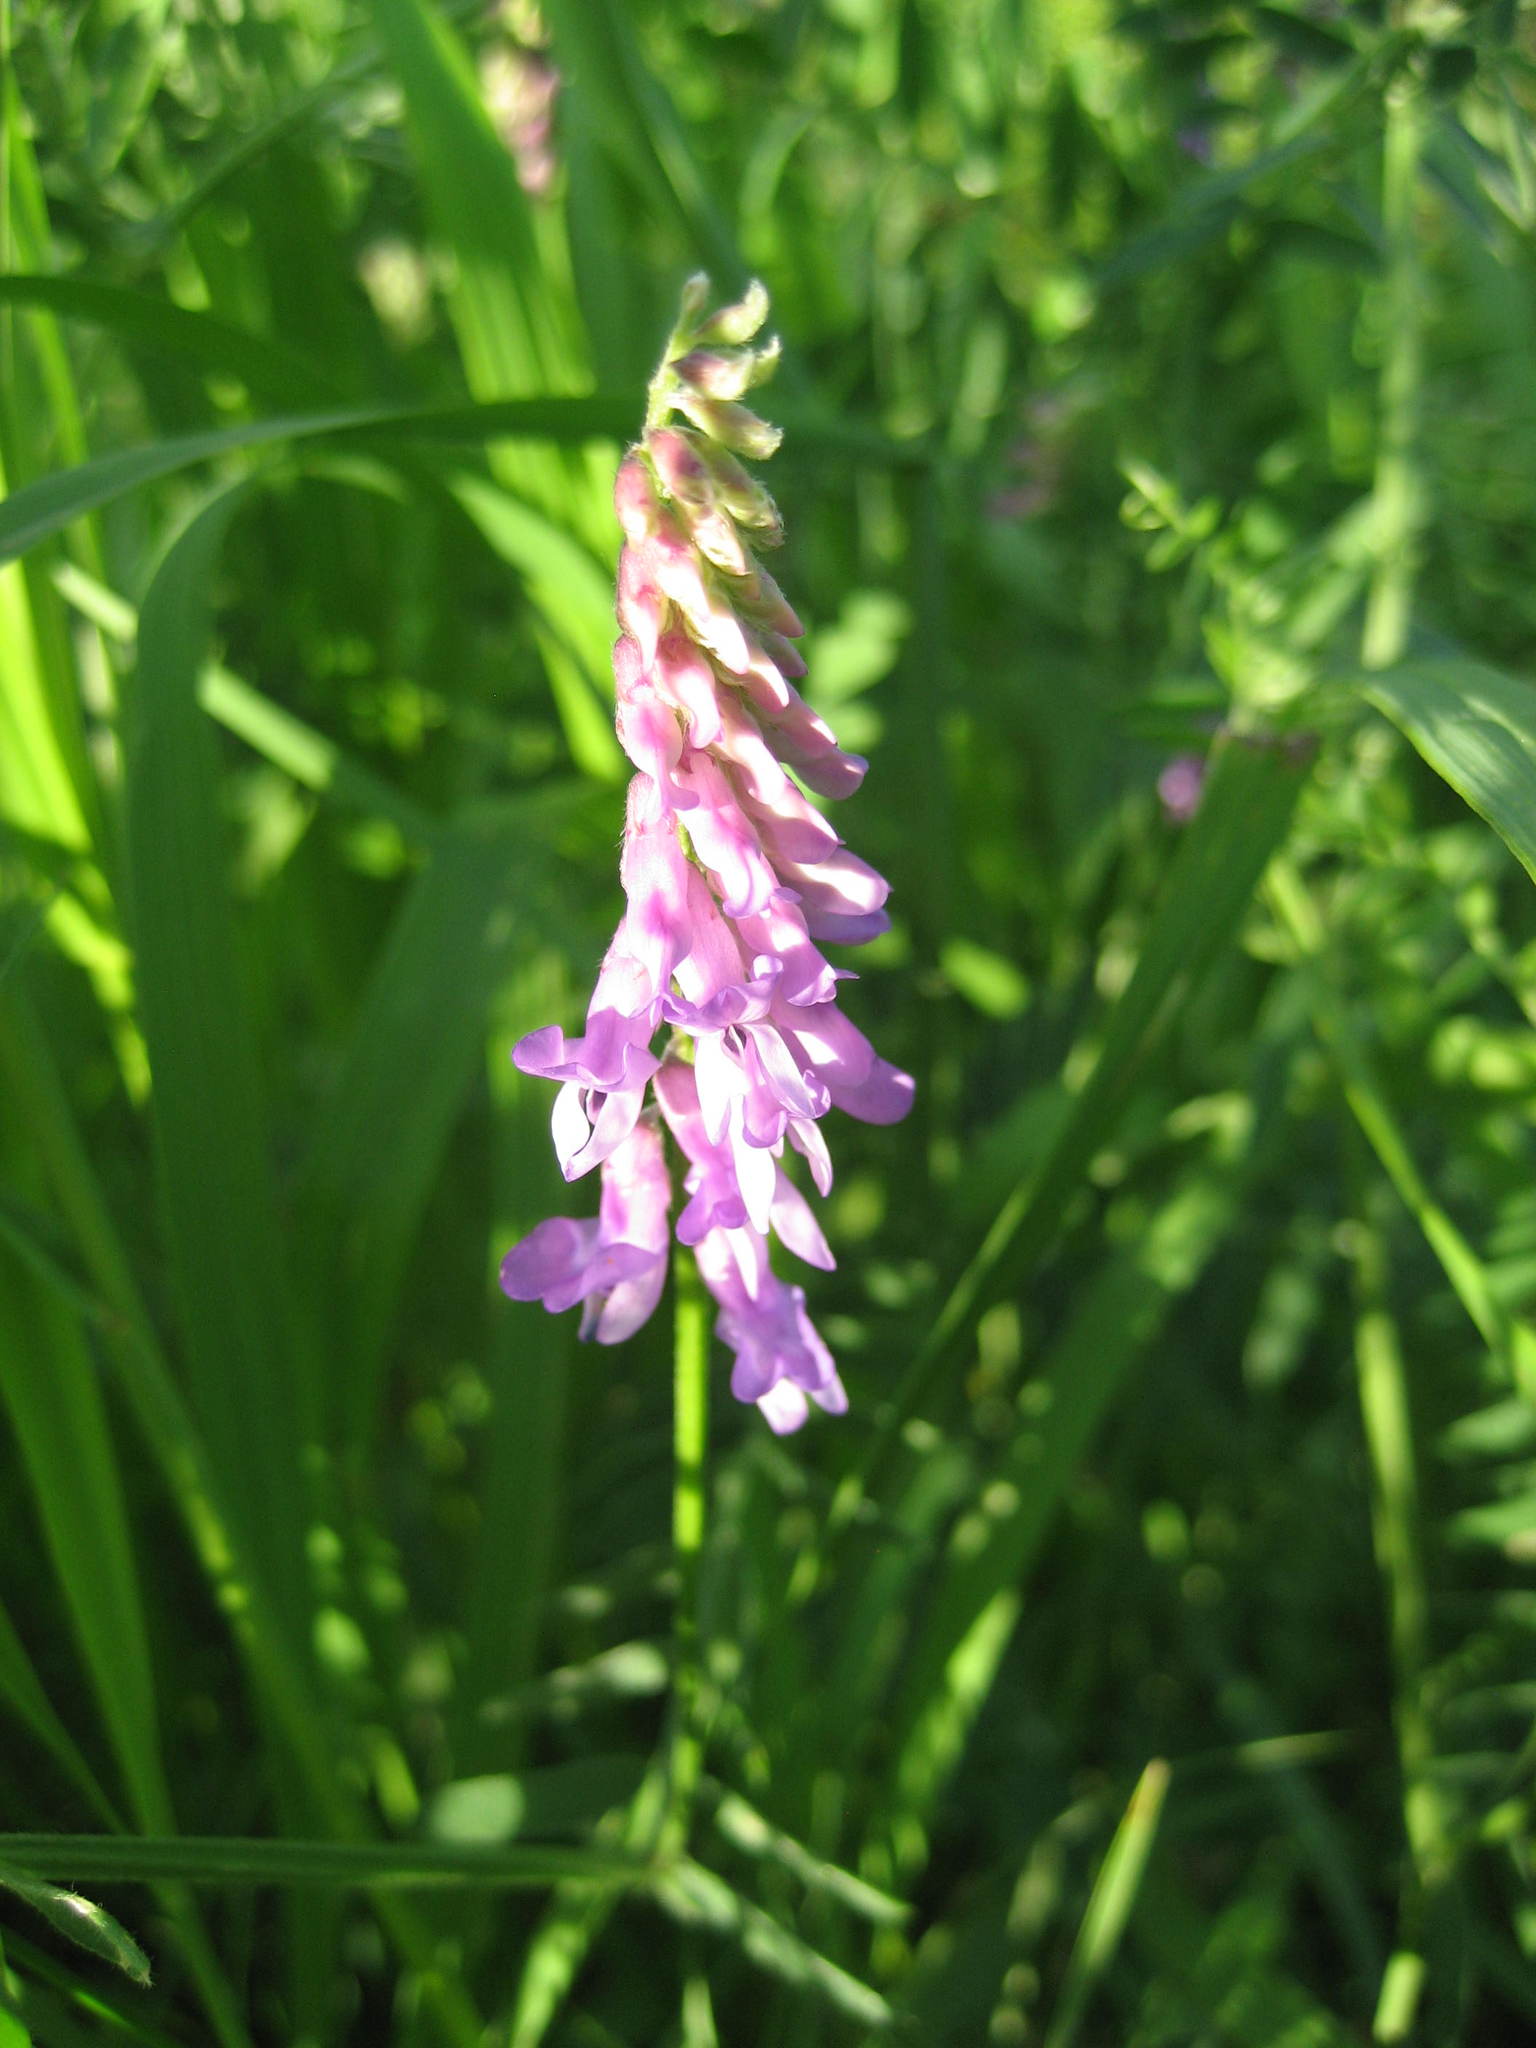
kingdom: Plantae
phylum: Tracheophyta
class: Magnoliopsida
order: Fabales
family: Fabaceae
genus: Vicia
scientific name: Vicia cracca
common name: Bird vetch
